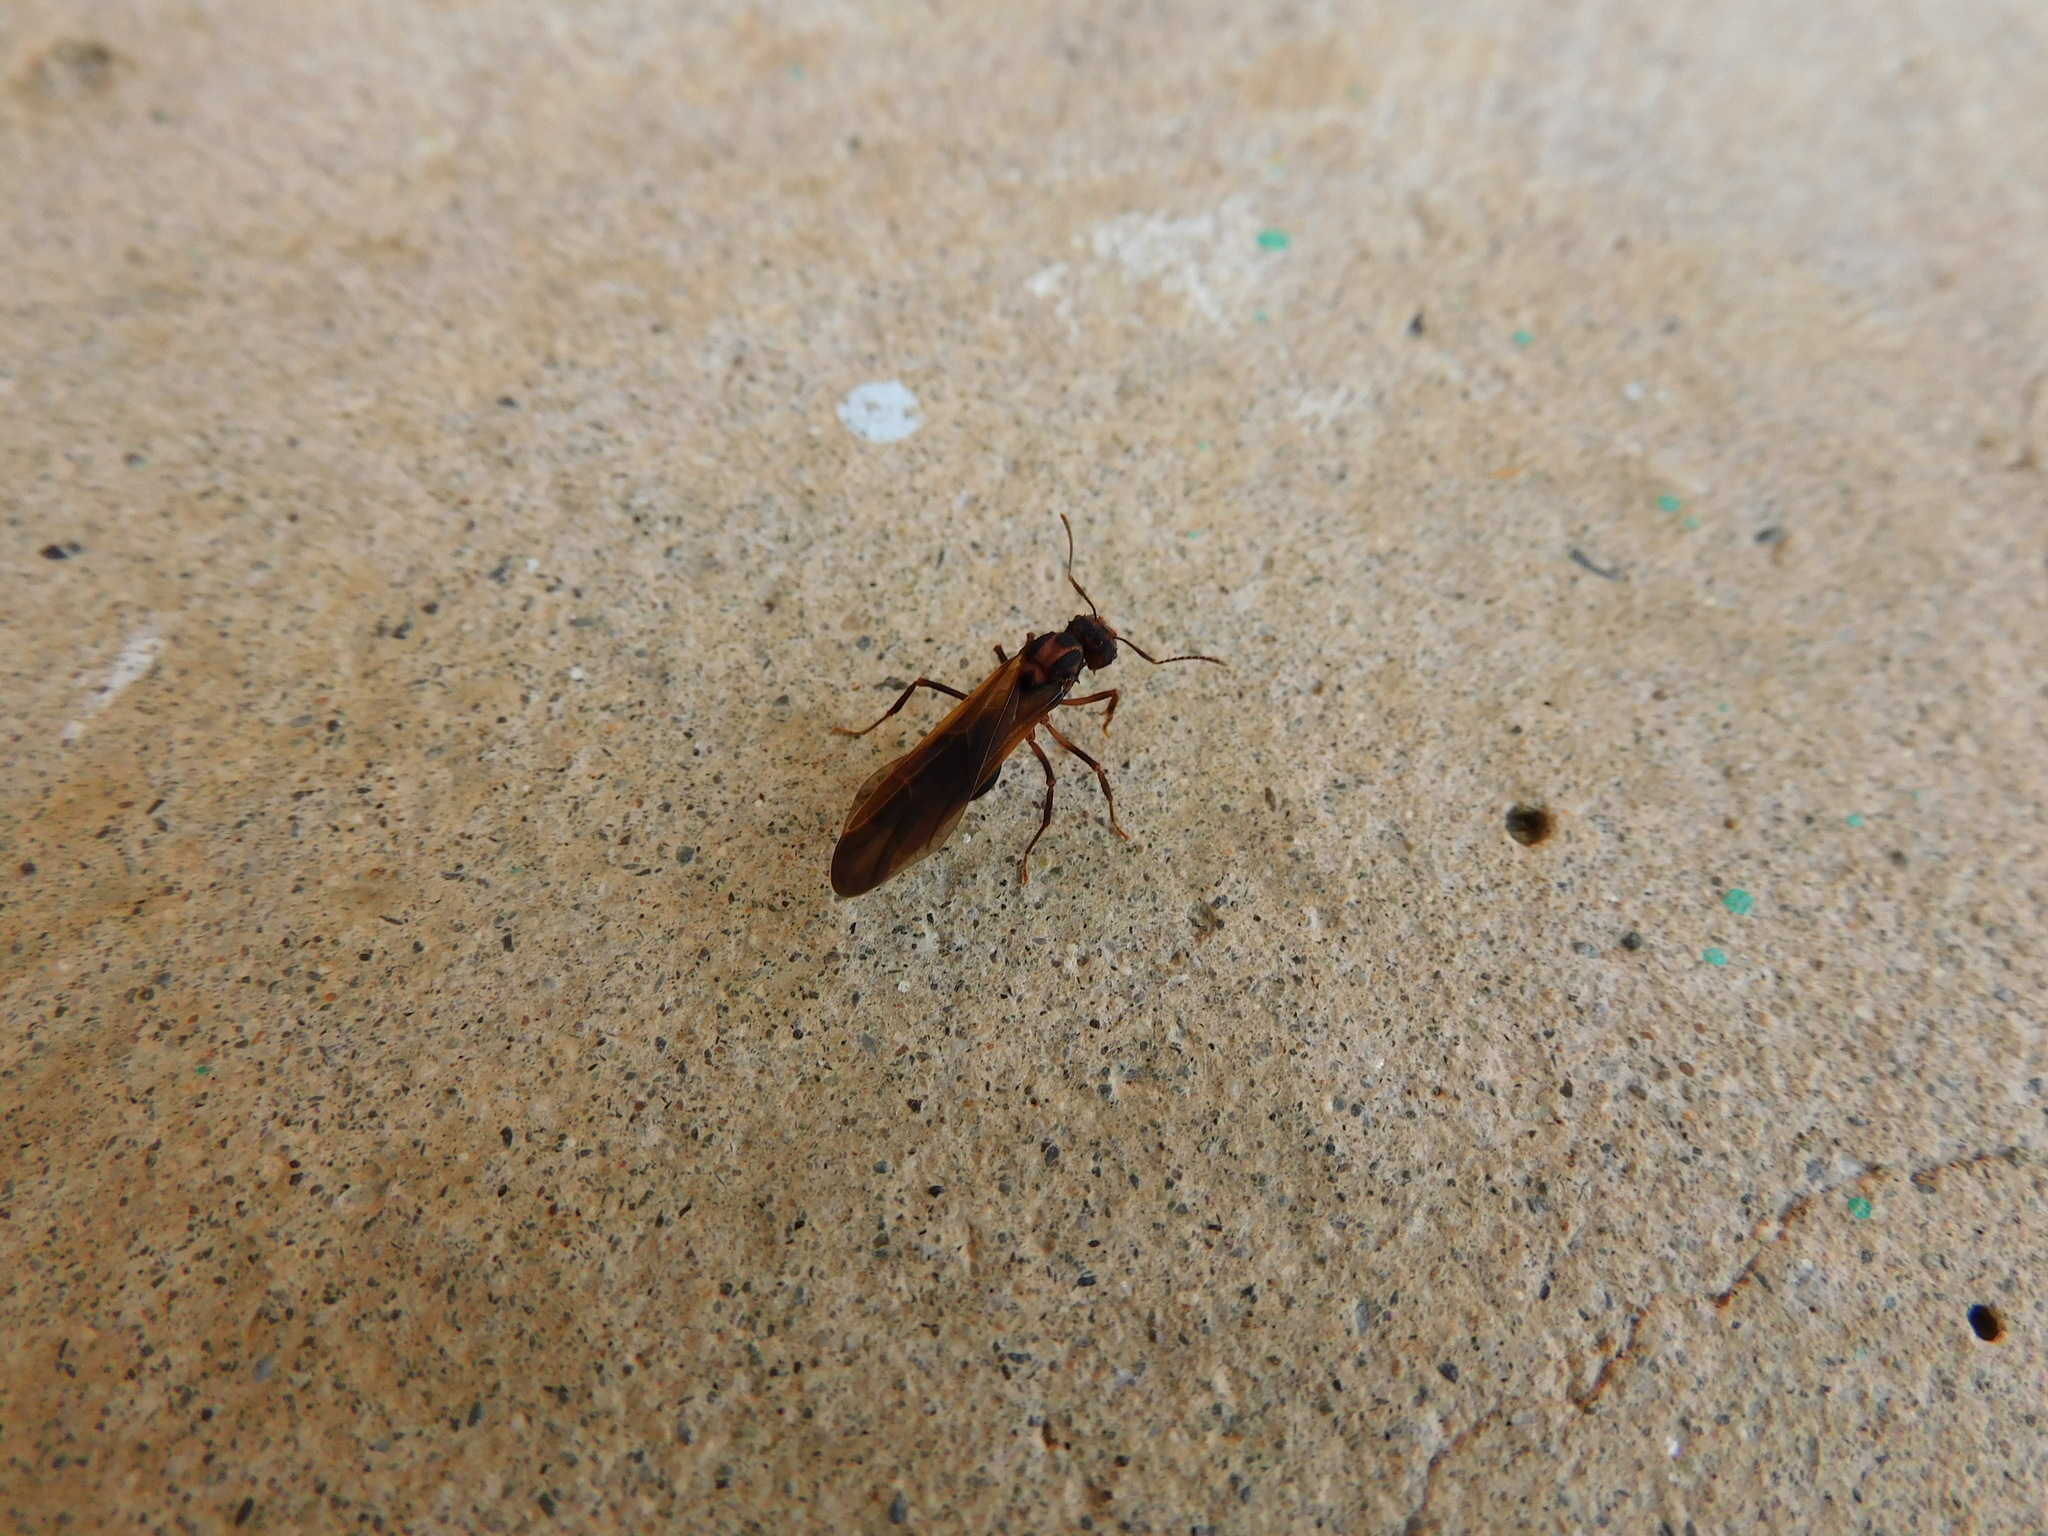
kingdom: Animalia
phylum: Arthropoda
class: Insecta
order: Hymenoptera
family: Formicidae
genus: Acromyrmex
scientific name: Acromyrmex coronatus
